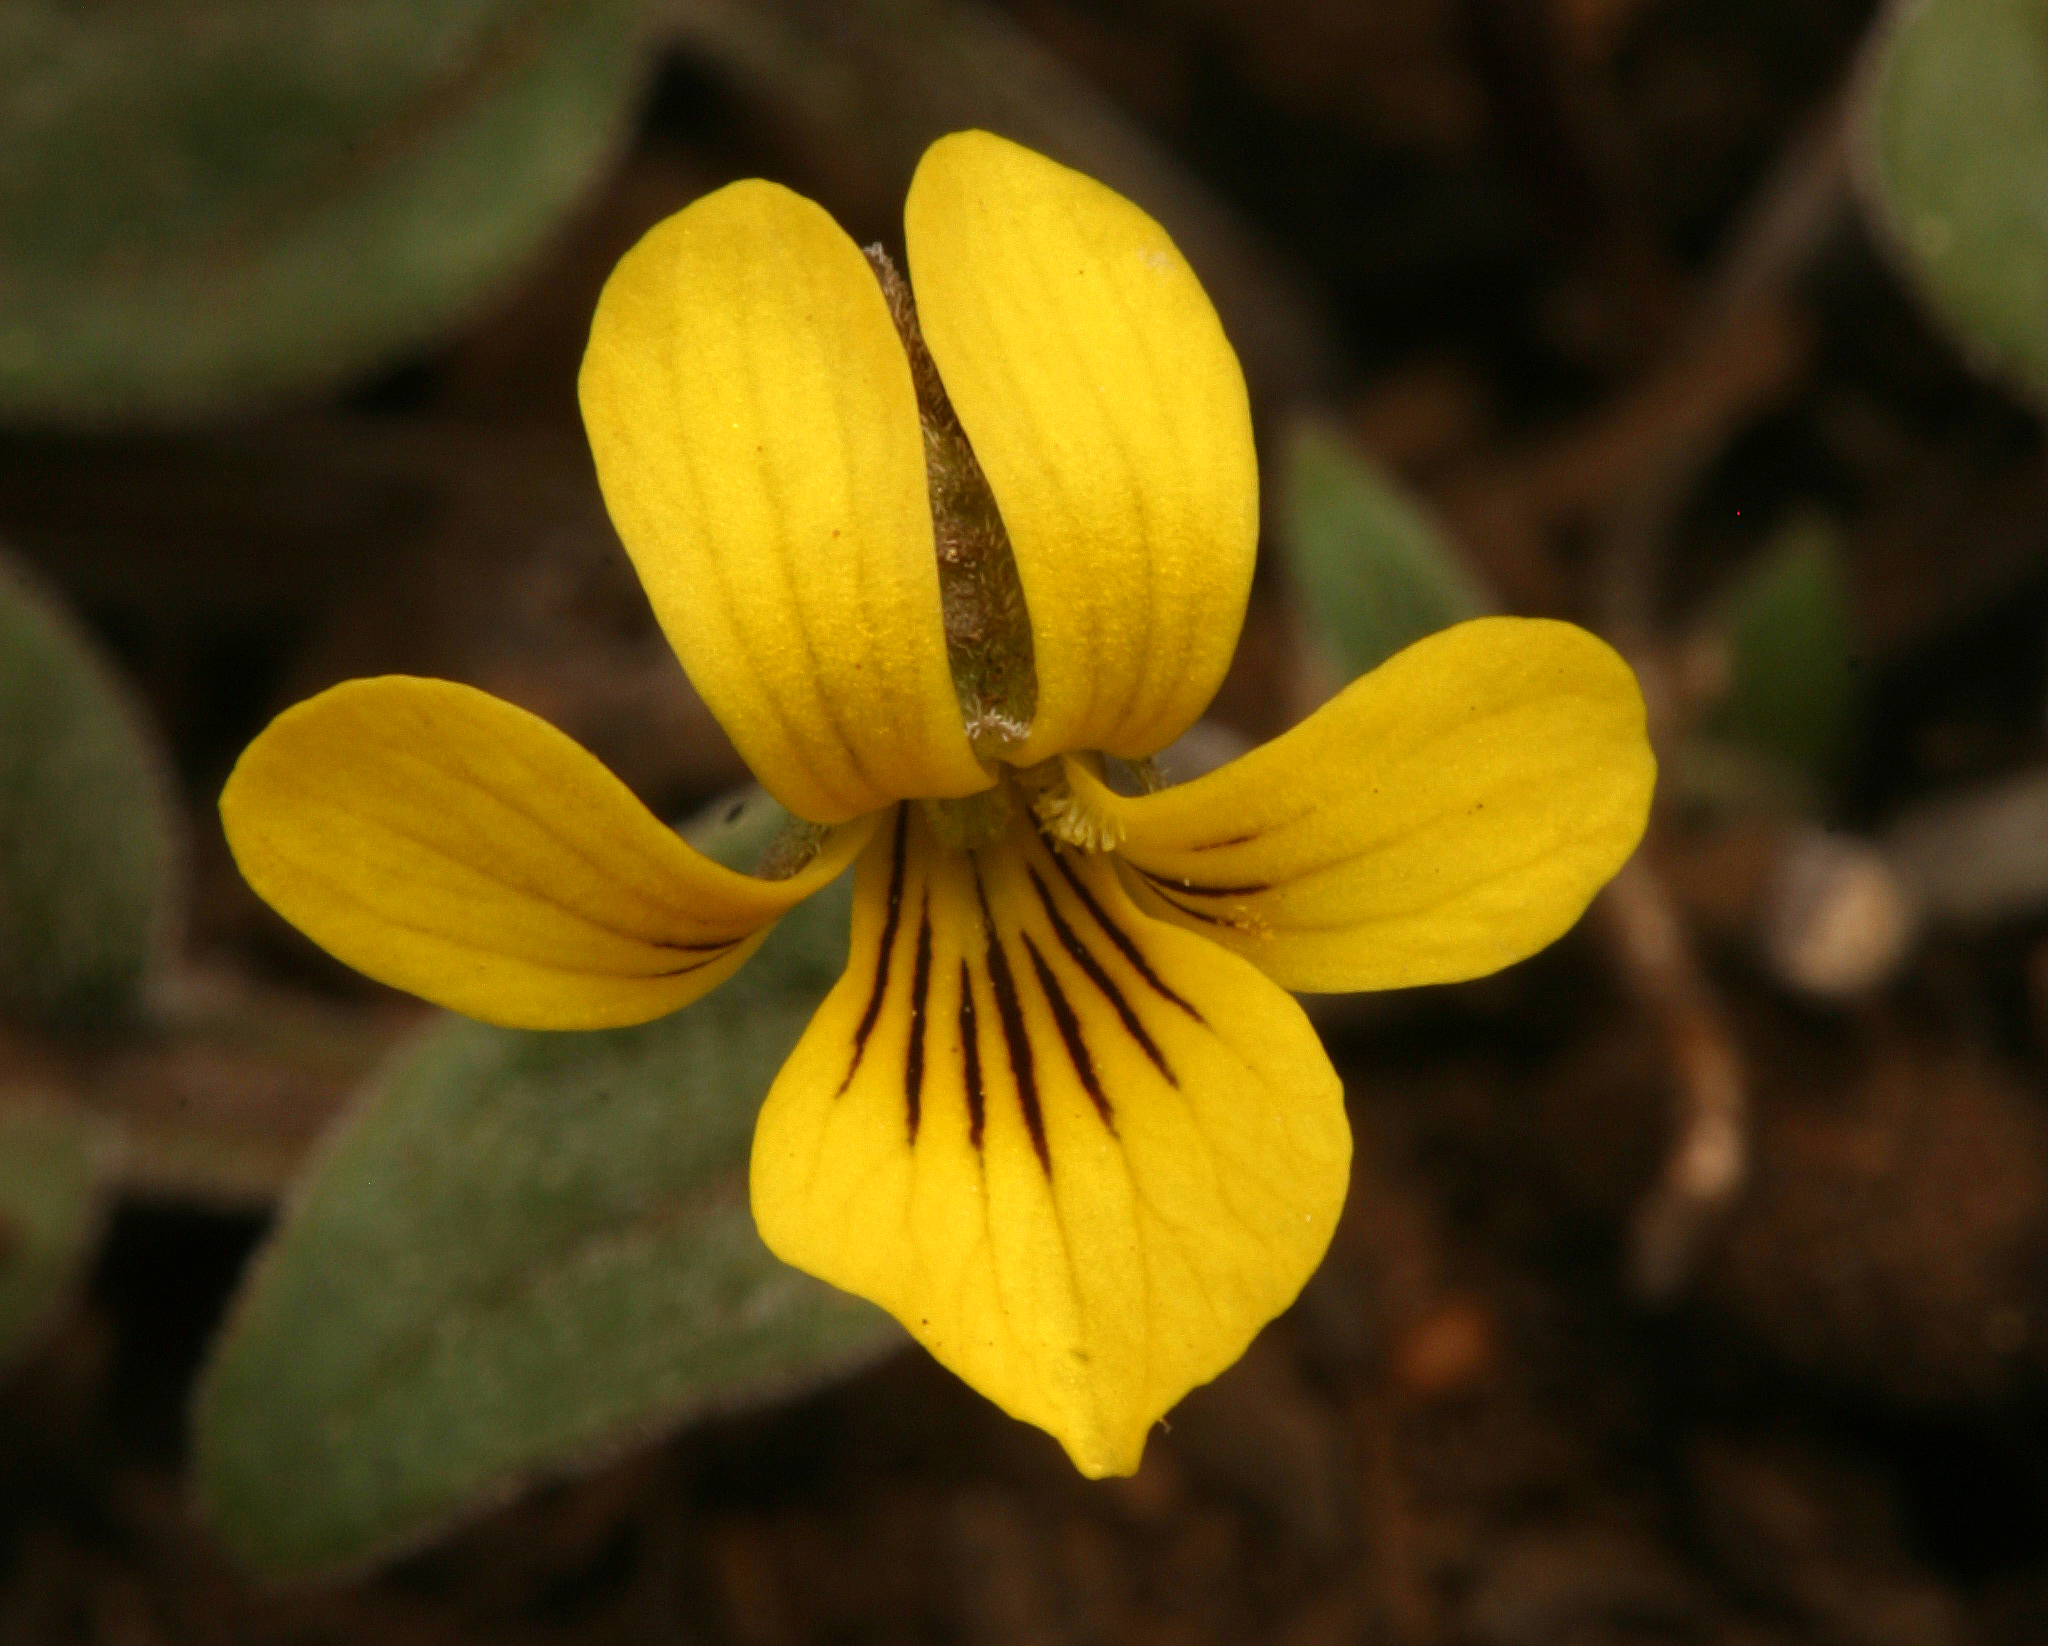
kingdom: Plantae
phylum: Tracheophyta
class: Magnoliopsida
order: Malpighiales
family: Violaceae
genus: Viola
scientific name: Viola praemorsa
